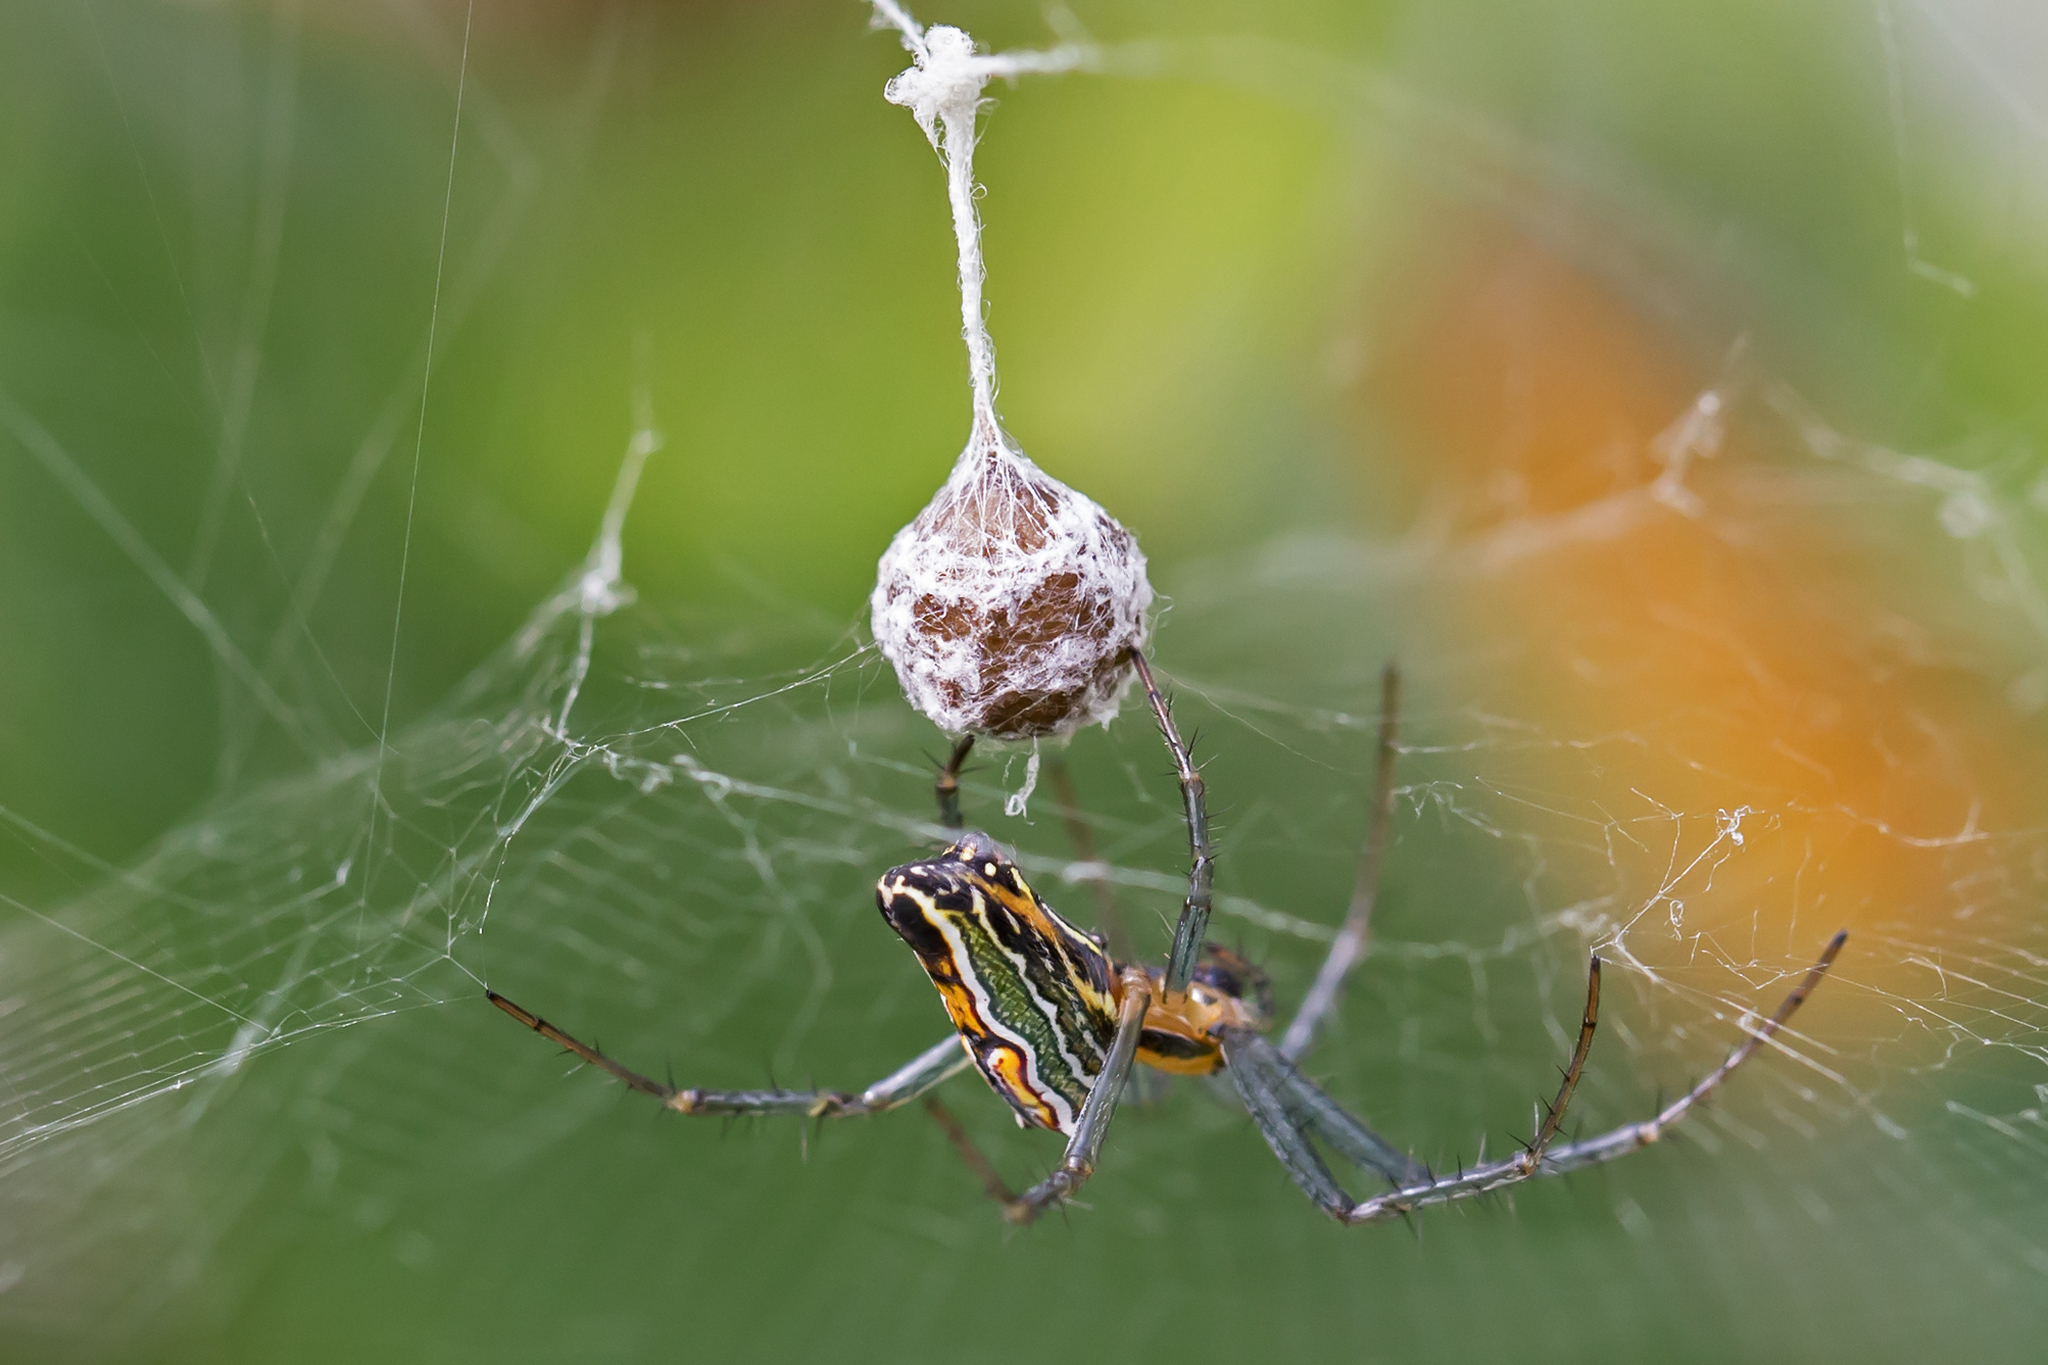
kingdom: Animalia
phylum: Arthropoda
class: Arachnida
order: Araneae
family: Araneidae
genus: Mecynogea
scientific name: Mecynogea lemniscata
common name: Orb weavers
